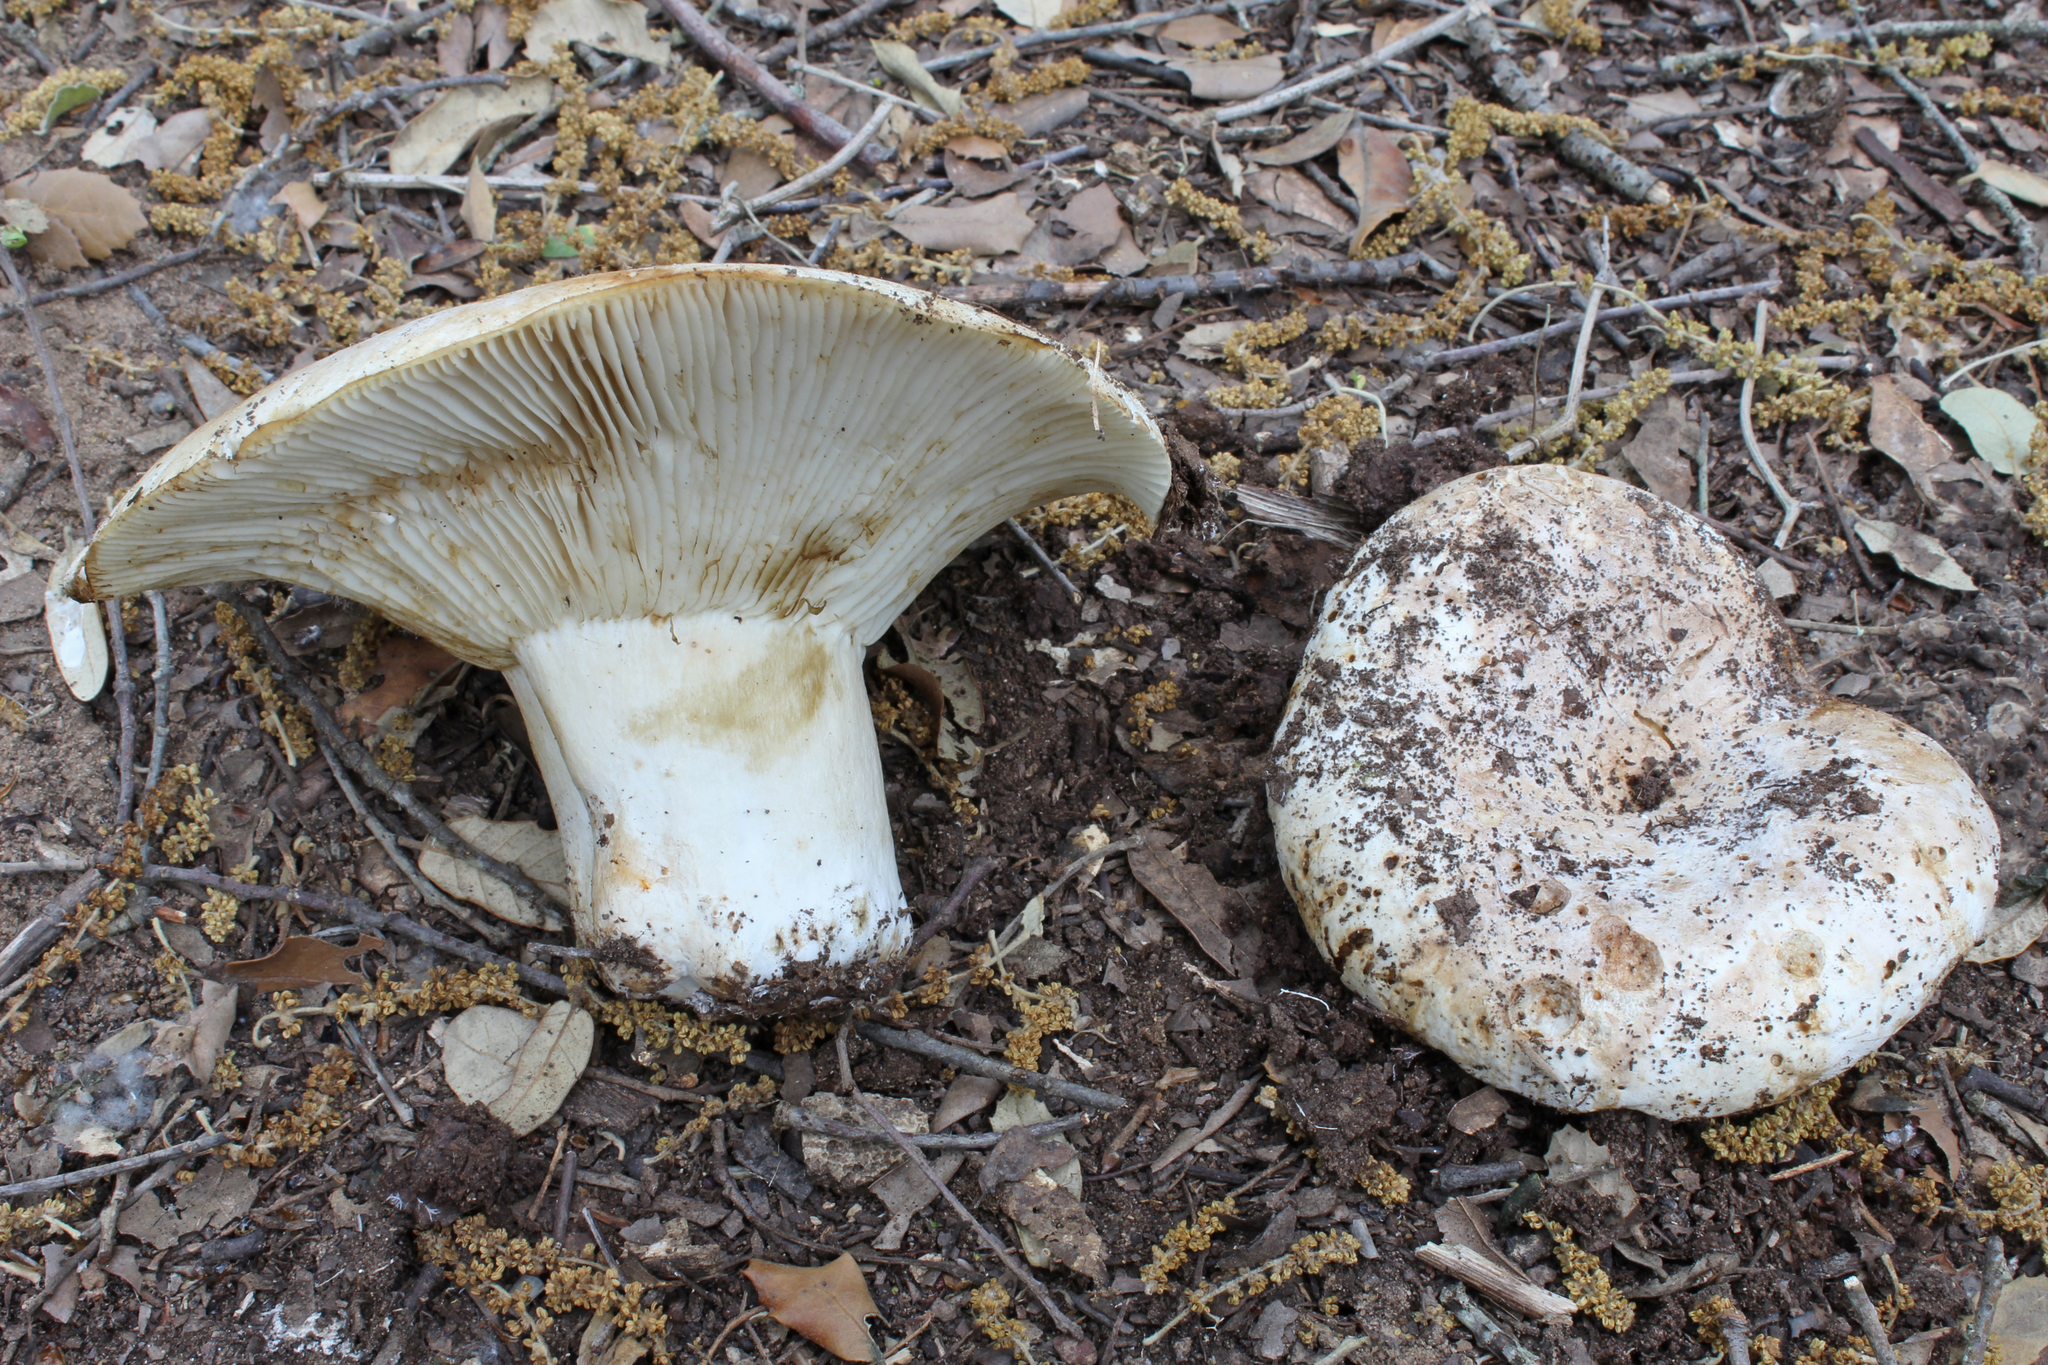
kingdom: Fungi
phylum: Basidiomycota
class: Agaricomycetes
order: Russulales
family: Russulaceae
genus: Russula
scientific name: Russula delica
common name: Milk white brittlegill
